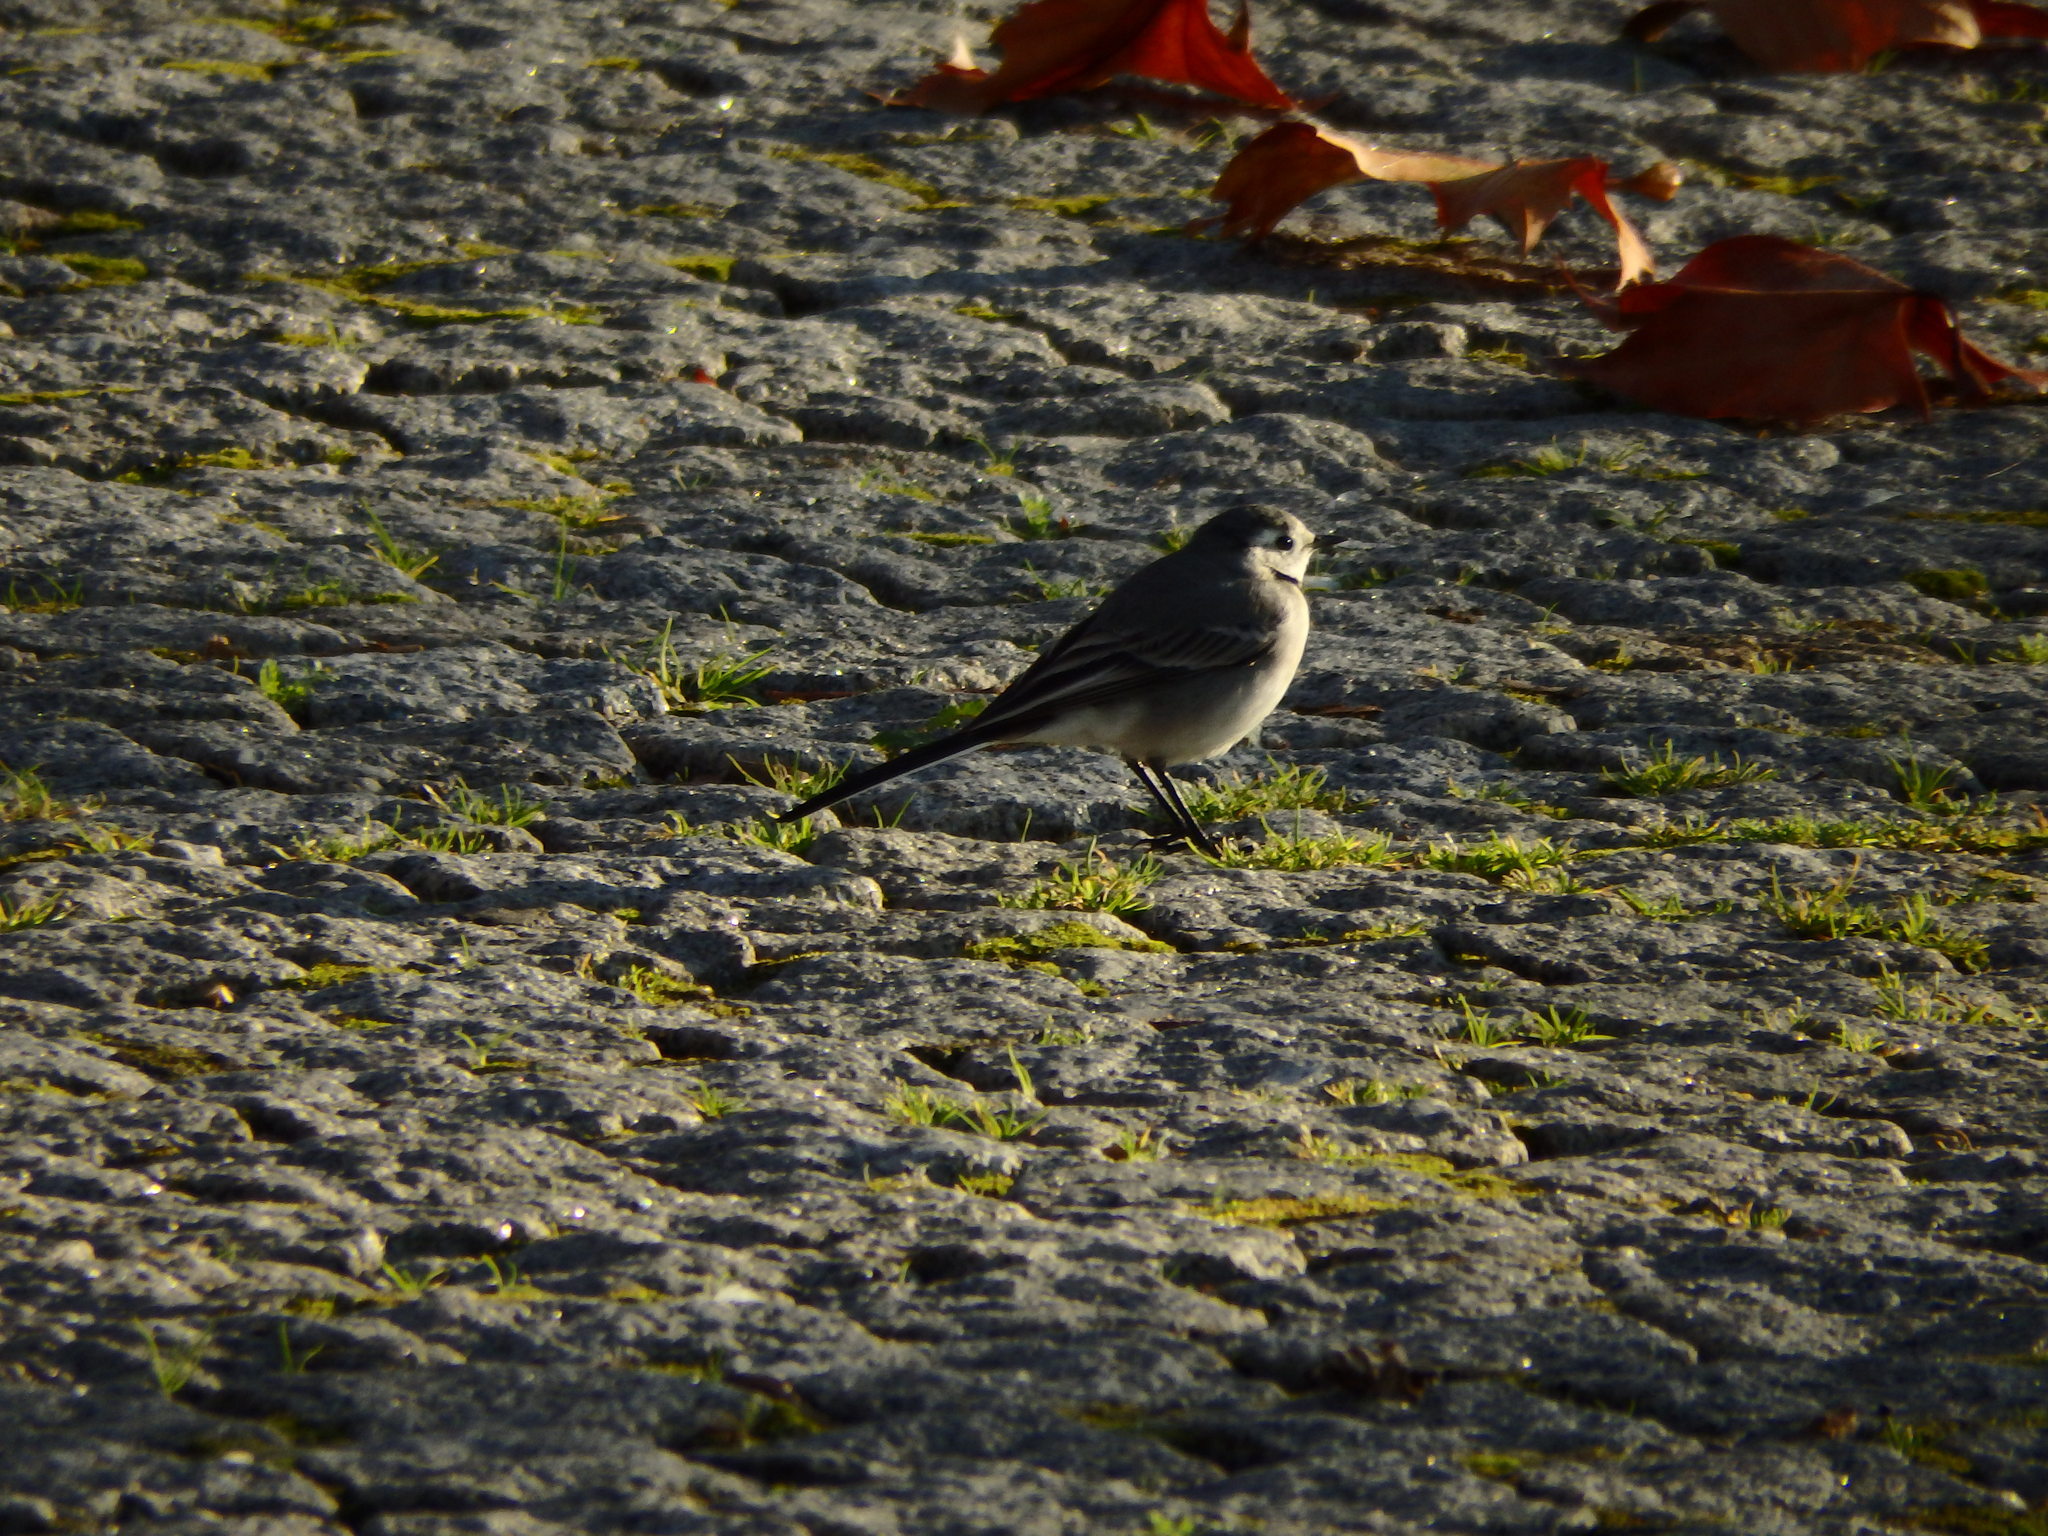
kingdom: Animalia
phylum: Chordata
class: Aves
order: Passeriformes
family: Motacillidae
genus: Motacilla
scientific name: Motacilla alba
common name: White wagtail
